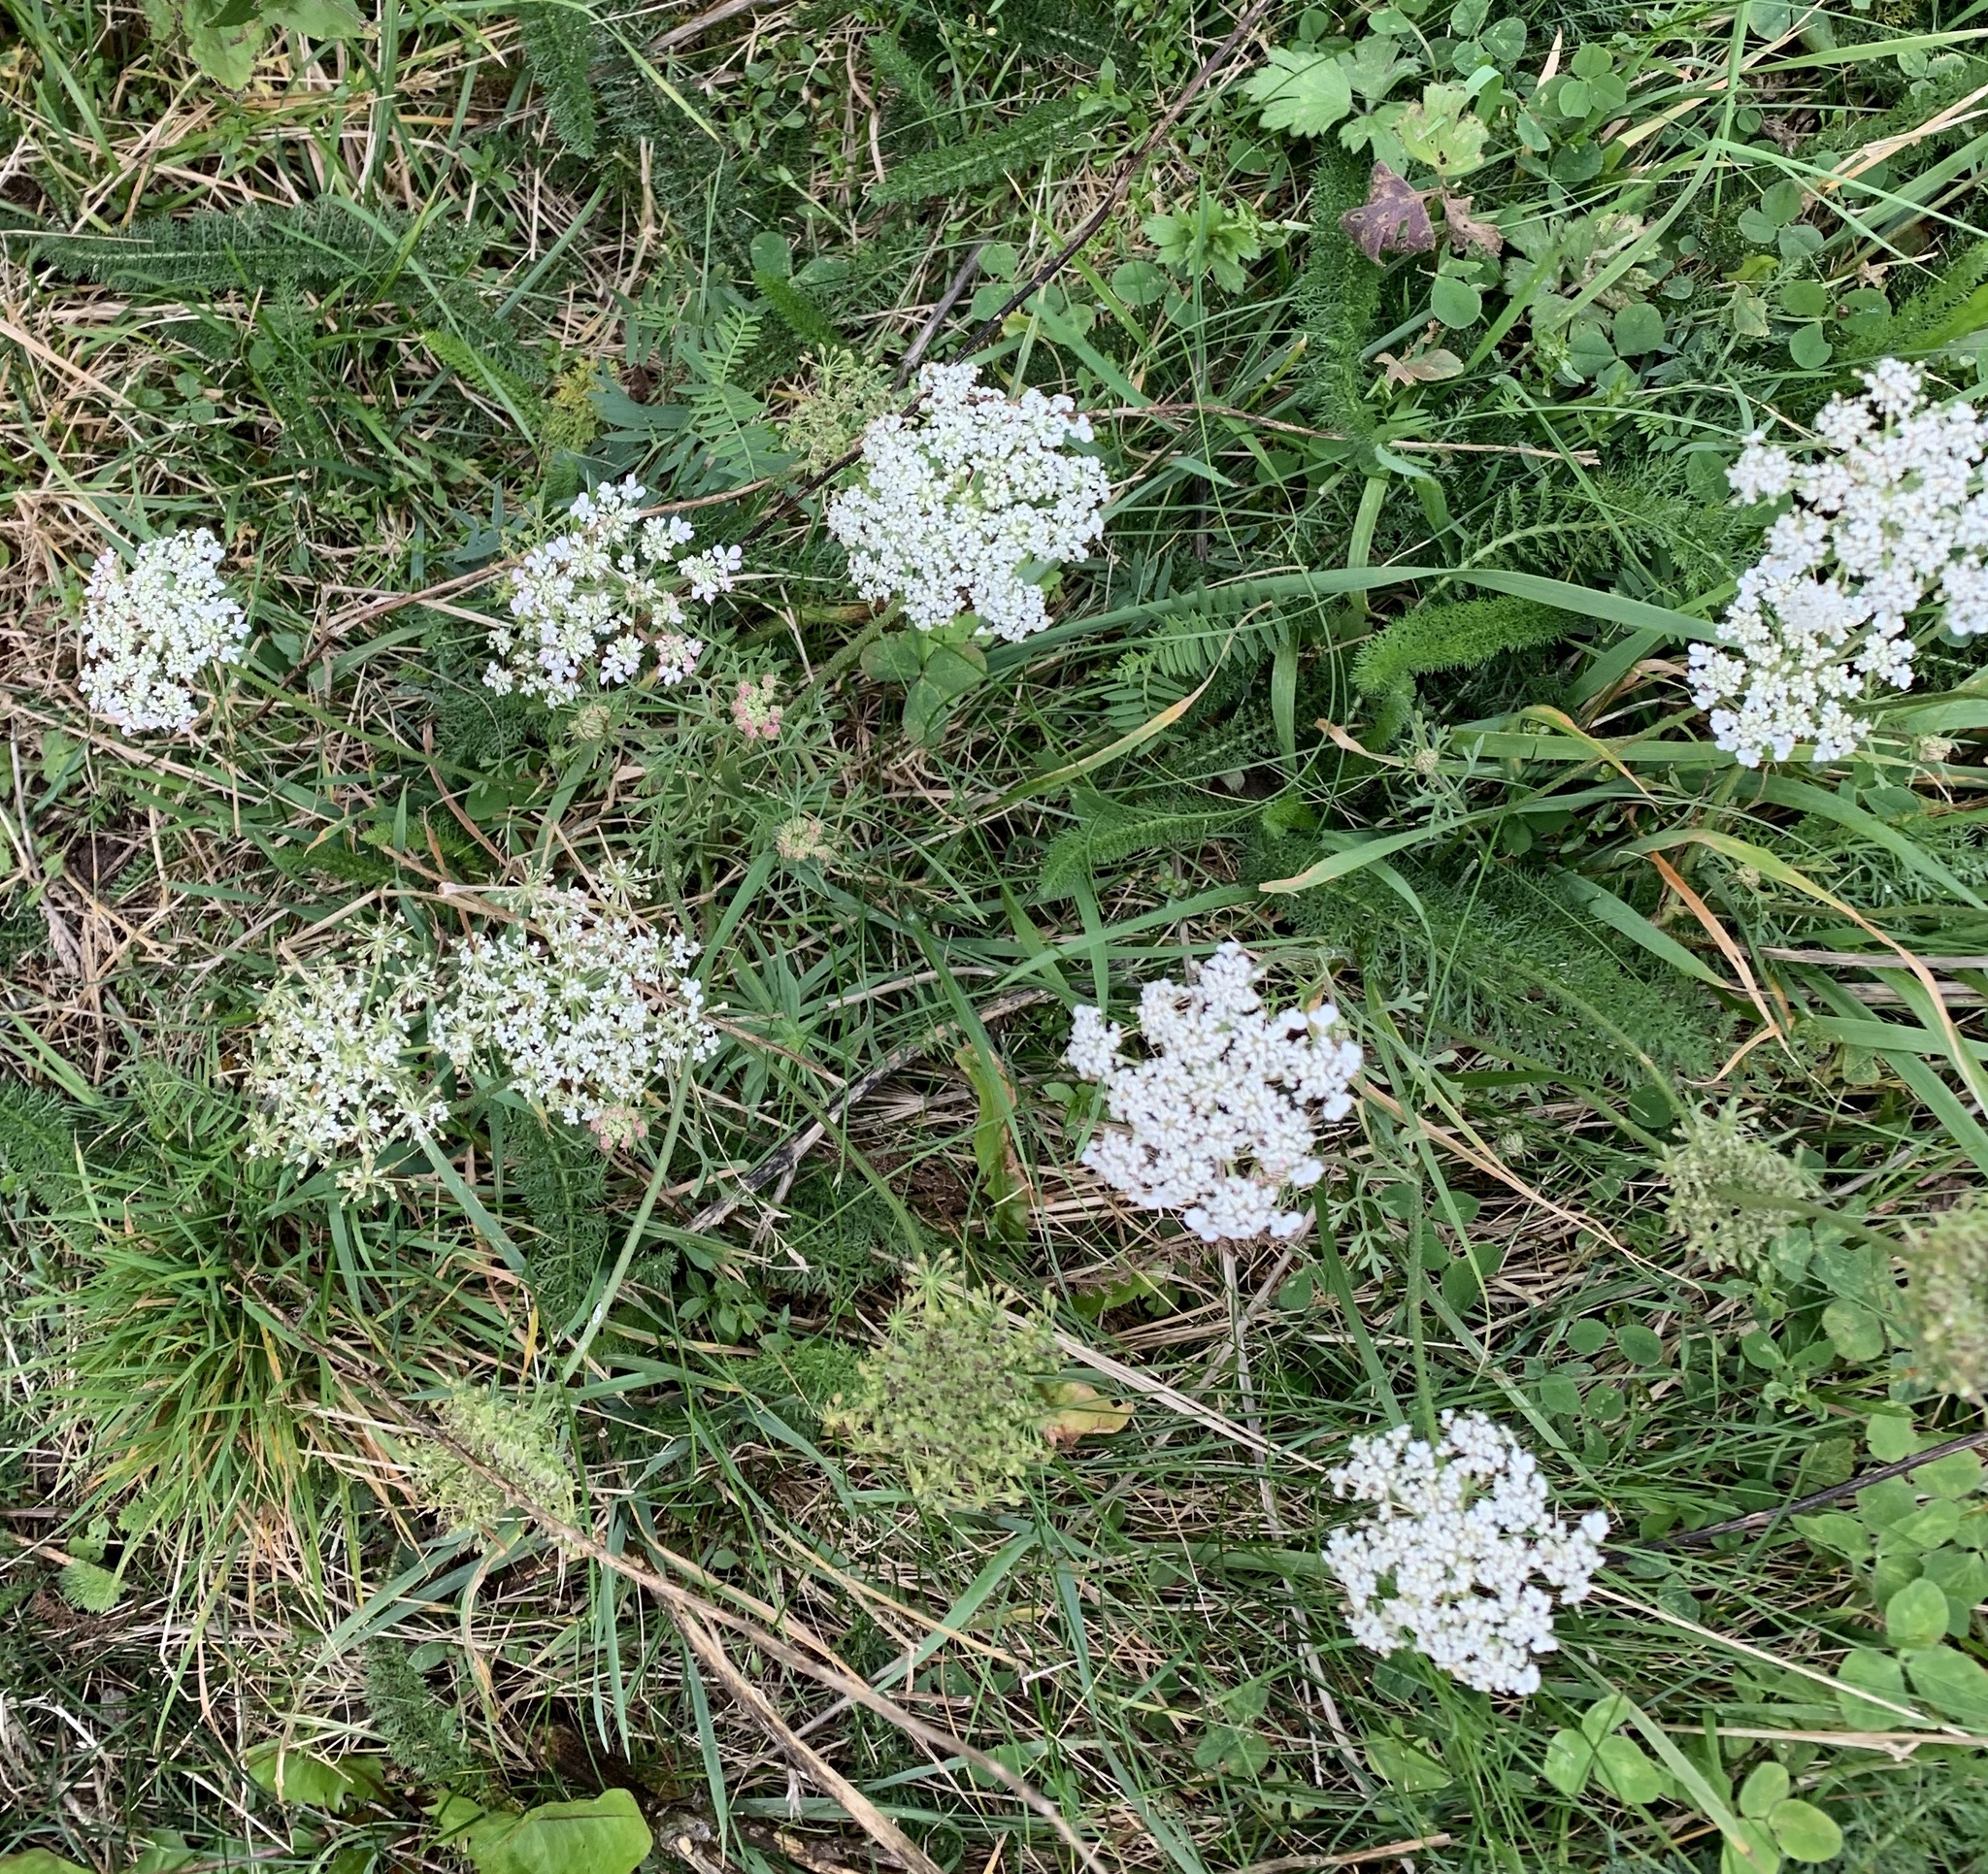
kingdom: Plantae
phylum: Tracheophyta
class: Magnoliopsida
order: Apiales
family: Apiaceae
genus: Daucus
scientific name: Daucus carota
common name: Wild carrot
